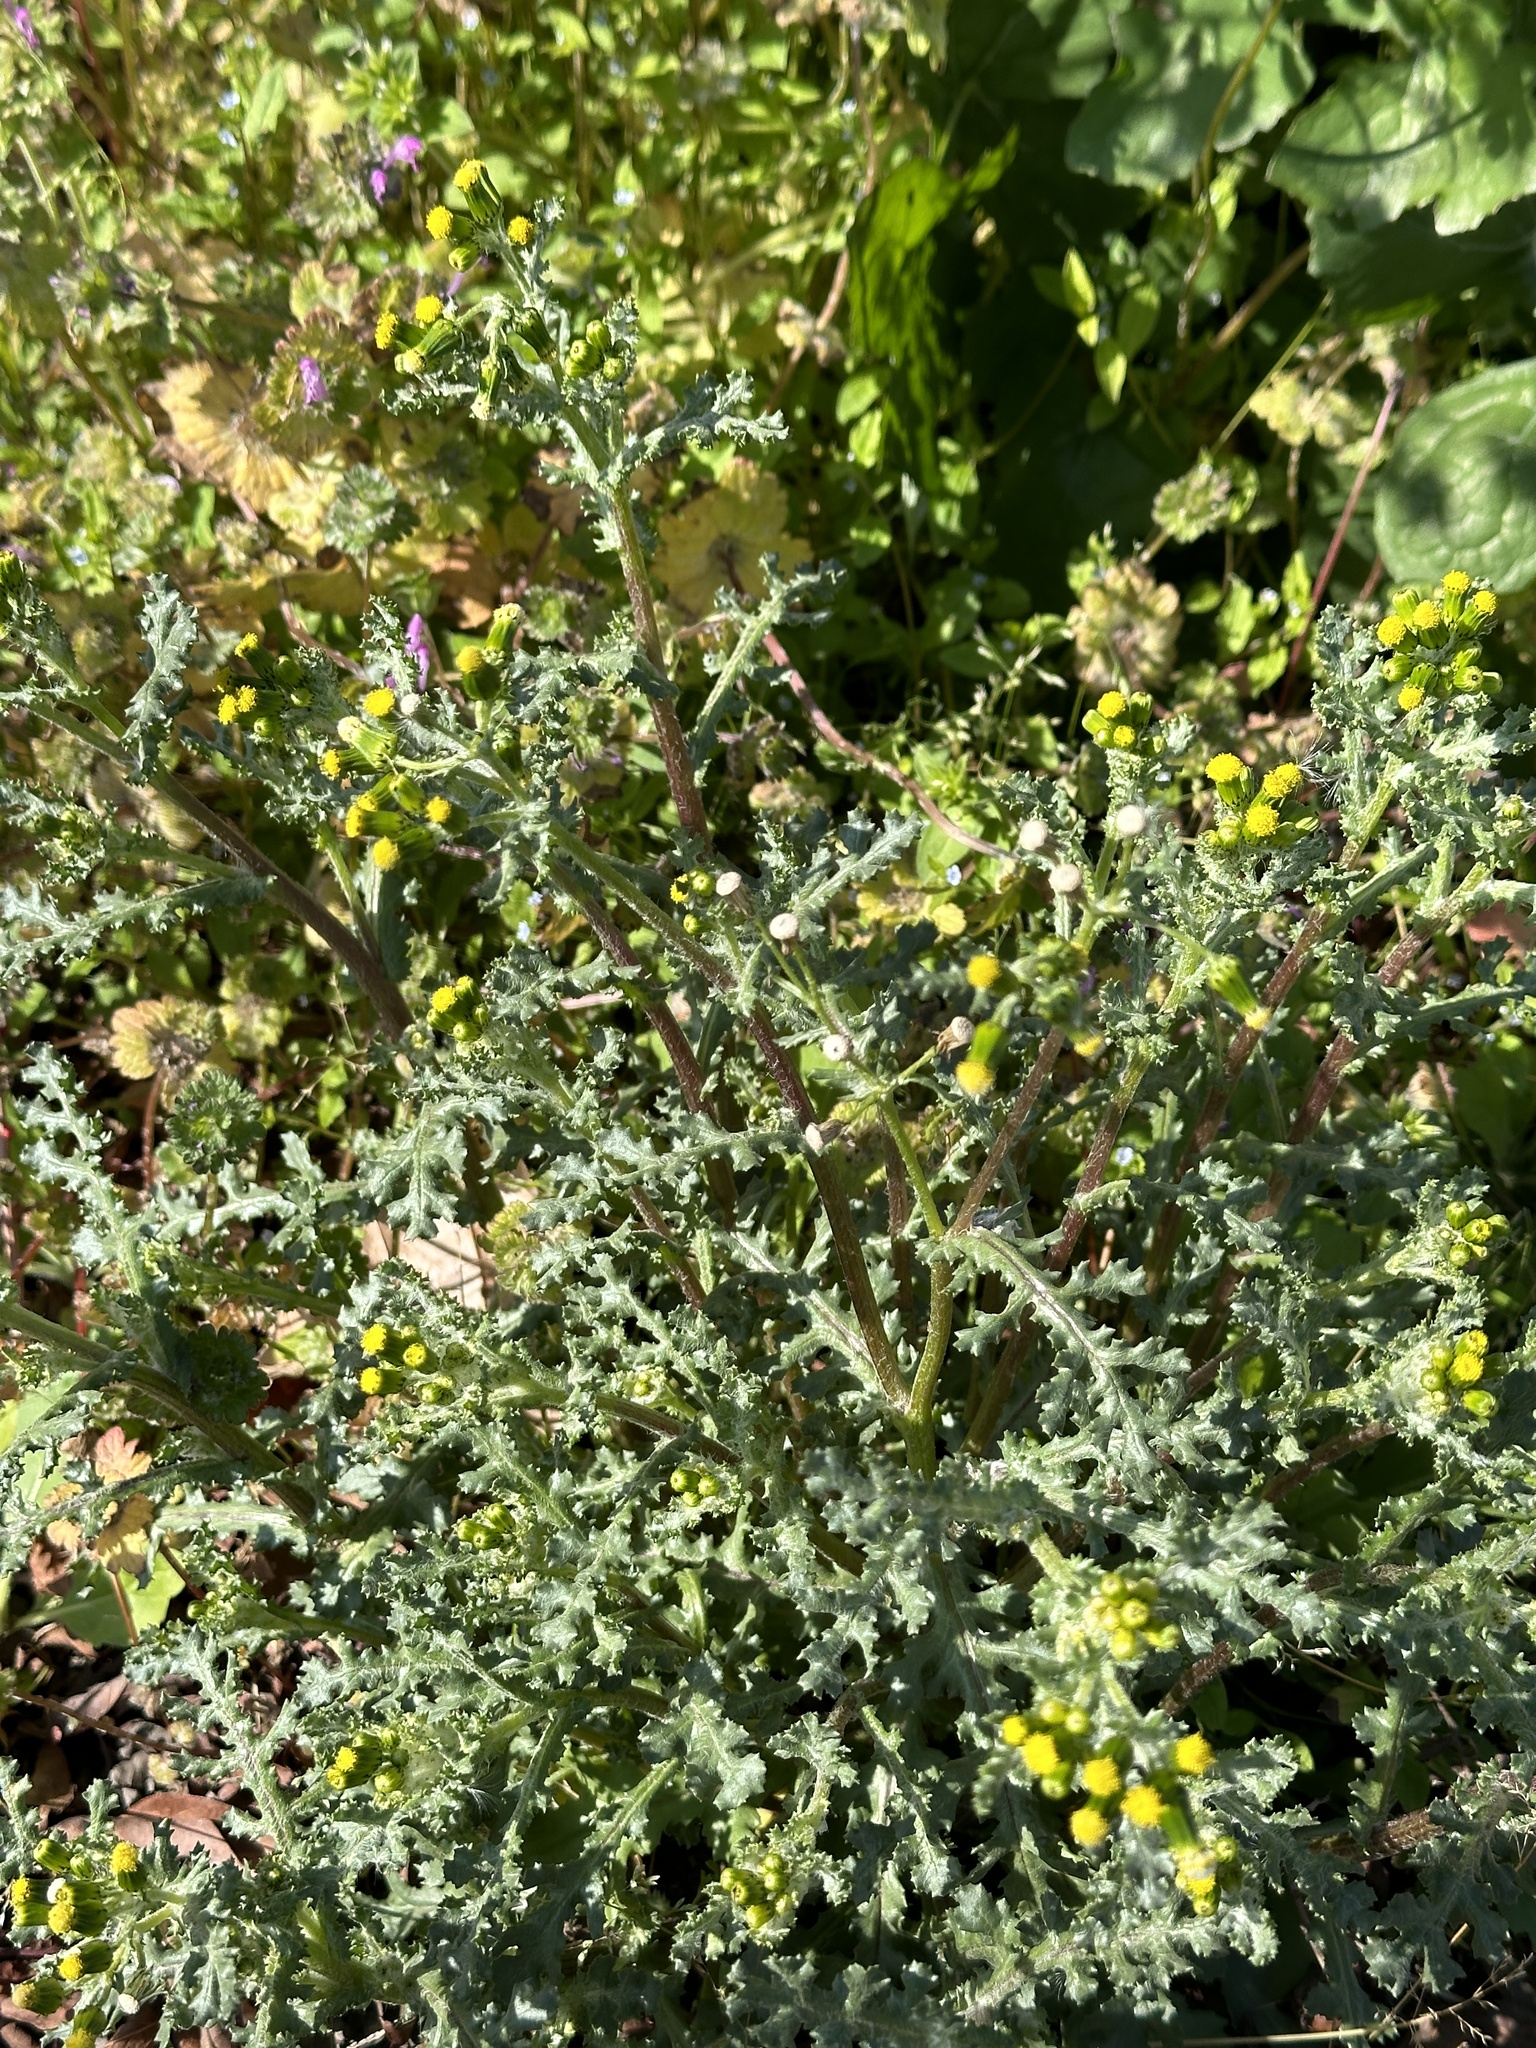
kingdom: Plantae
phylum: Tracheophyta
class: Magnoliopsida
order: Asterales
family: Asteraceae
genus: Senecio
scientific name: Senecio vulgaris
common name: Old-man-in-the-spring
